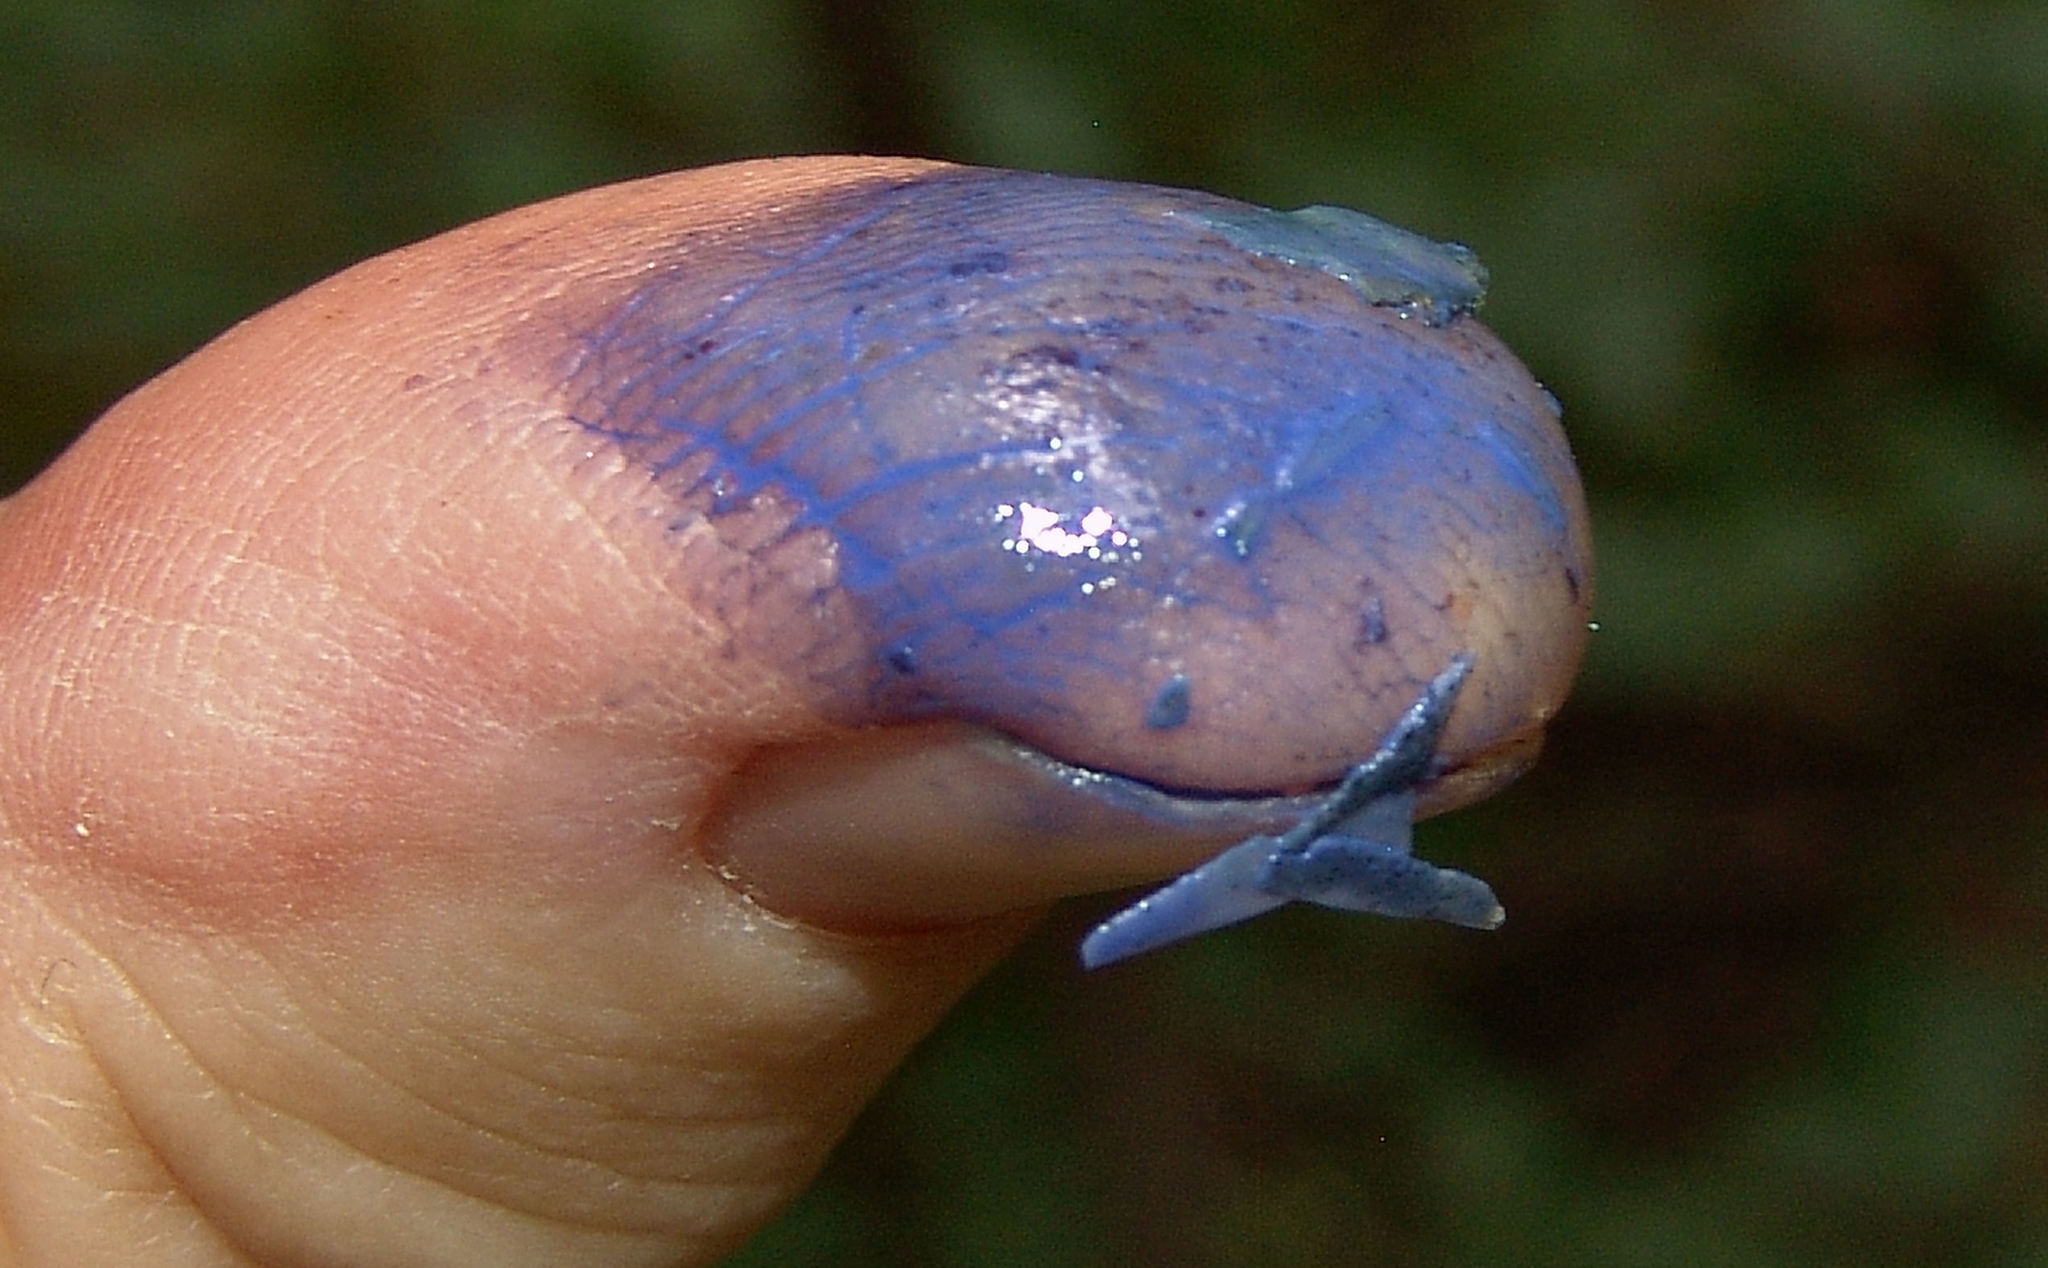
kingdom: Fungi
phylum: Basidiomycota
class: Agaricomycetes
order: Russulales
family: Russulaceae
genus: Lactarius
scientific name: Lactarius indigo
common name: Indigo milk cap
